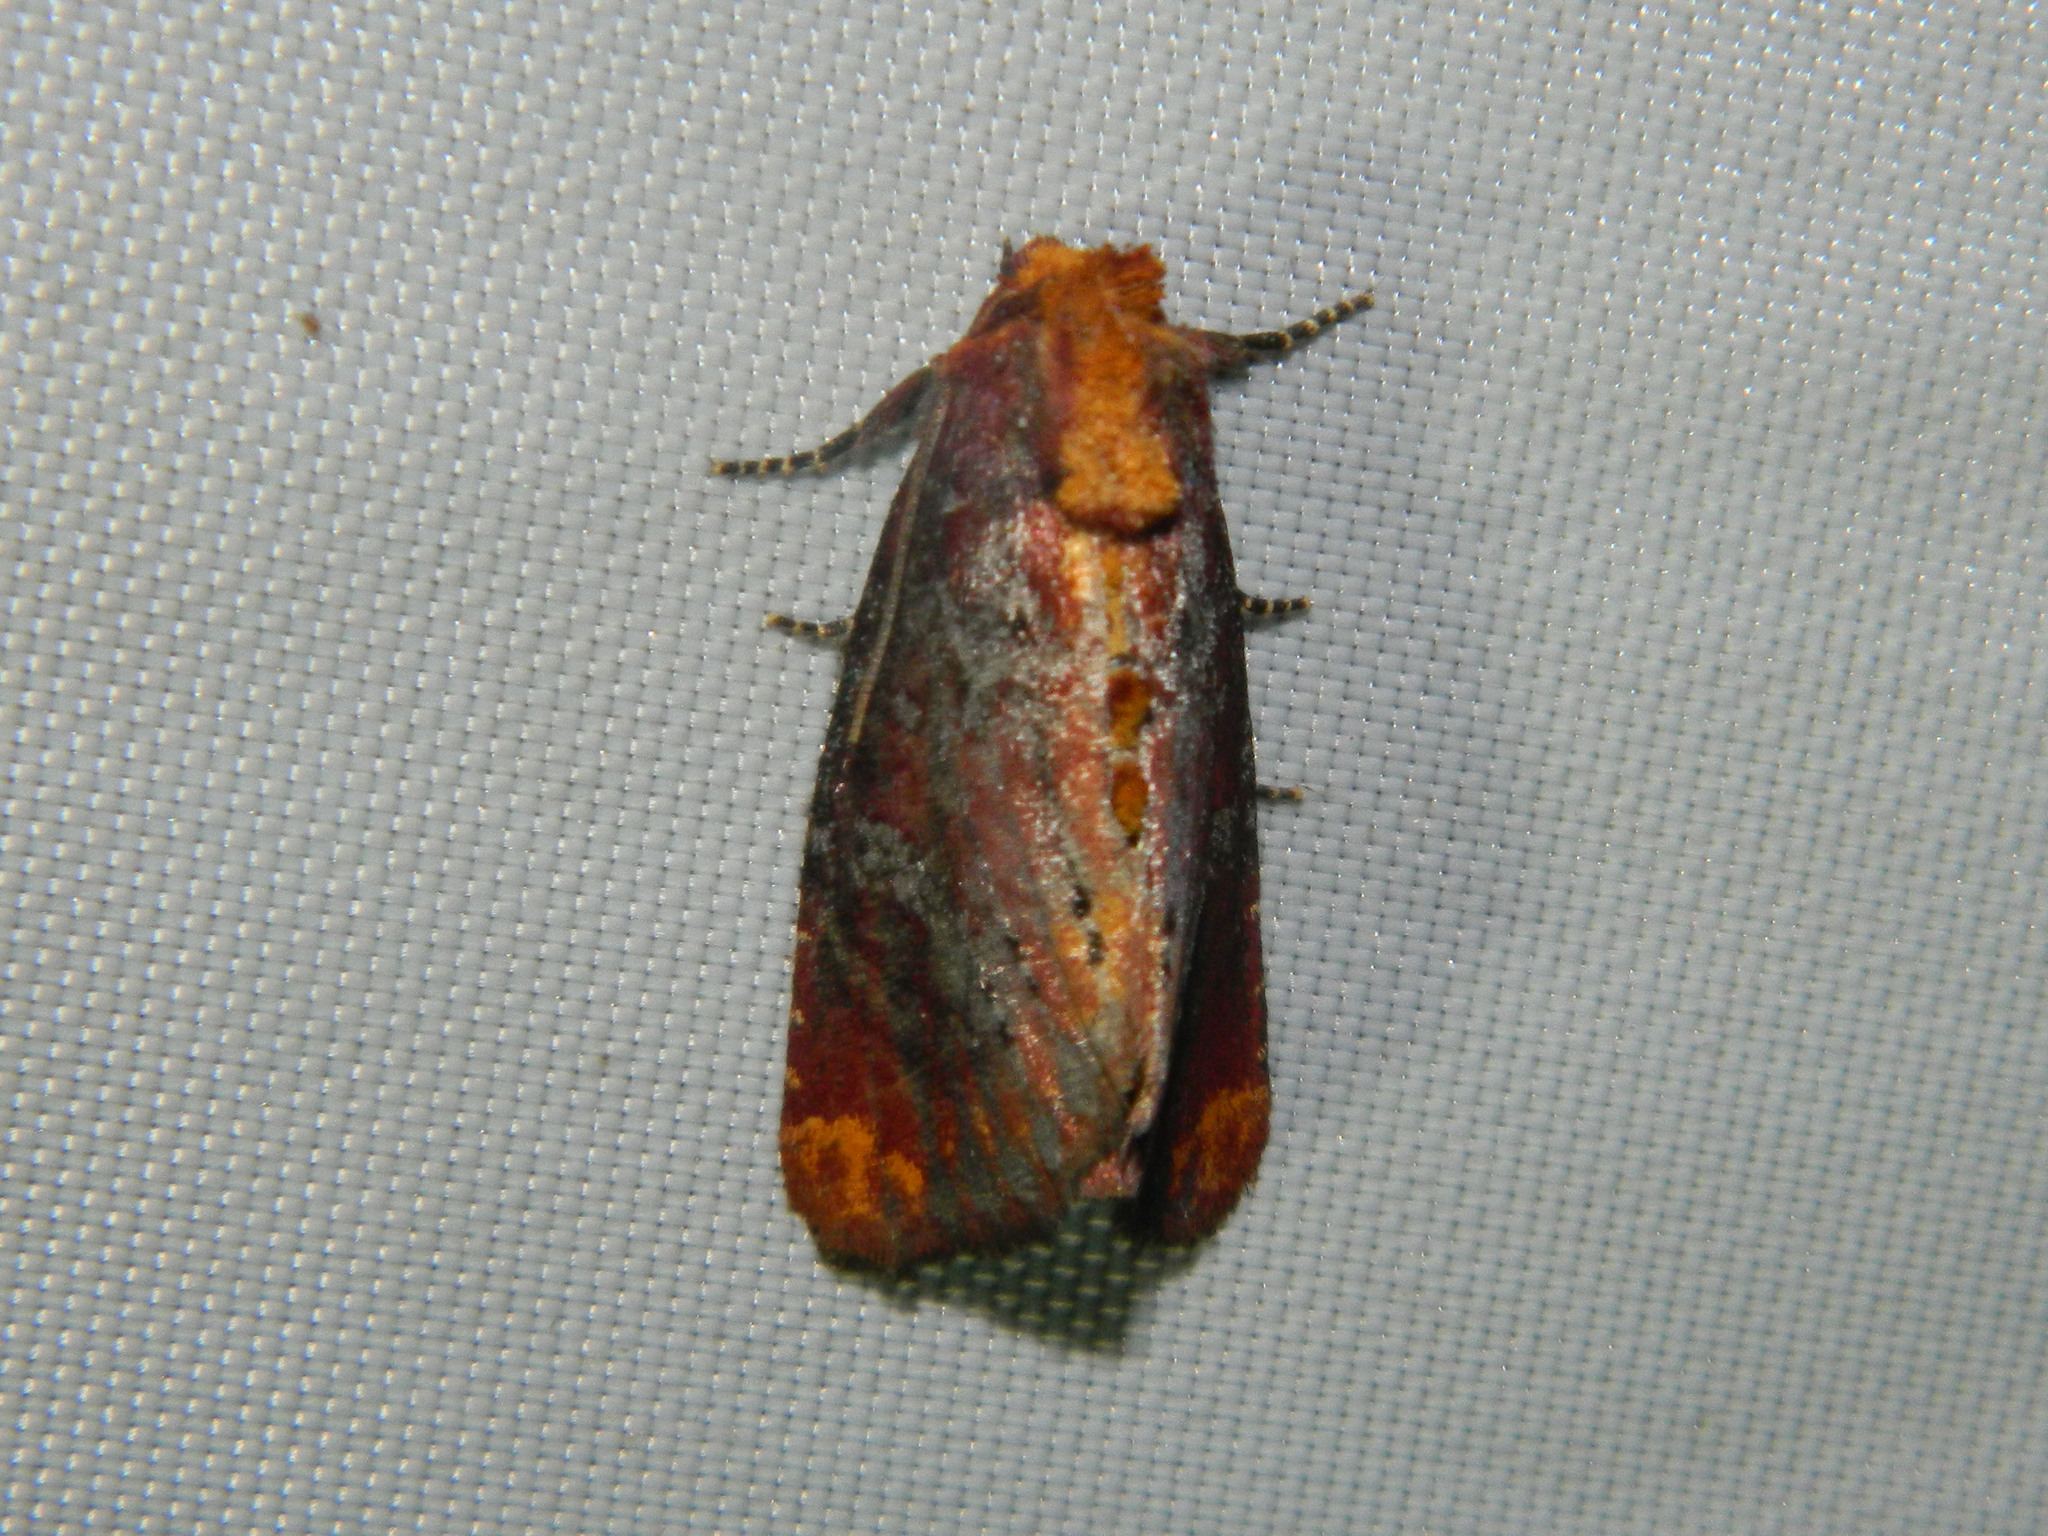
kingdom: Animalia
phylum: Arthropoda
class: Insecta
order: Lepidoptera
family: Noctuidae
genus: Achatodes
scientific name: Achatodes zeae
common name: Elder shoot borer
